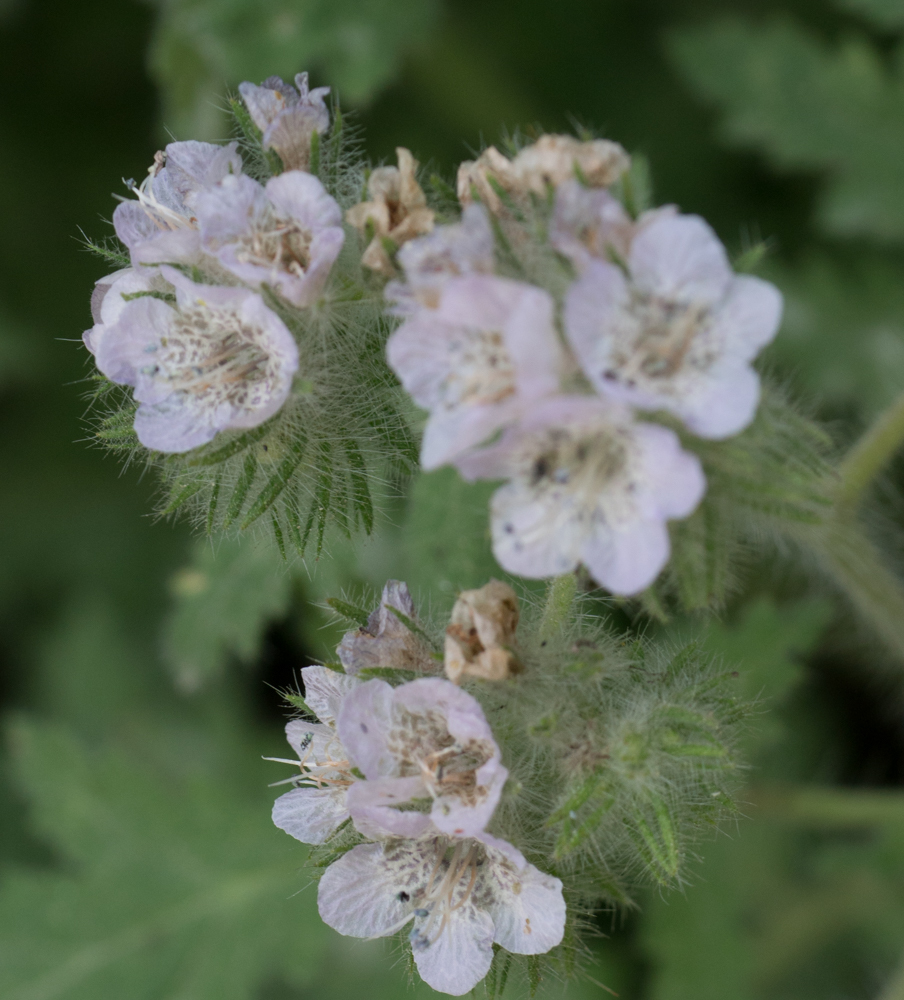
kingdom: Plantae
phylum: Tracheophyta
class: Magnoliopsida
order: Boraginales
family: Hydrophyllaceae
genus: Phacelia
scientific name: Phacelia cicutaria
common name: Caterpillar phacelia
